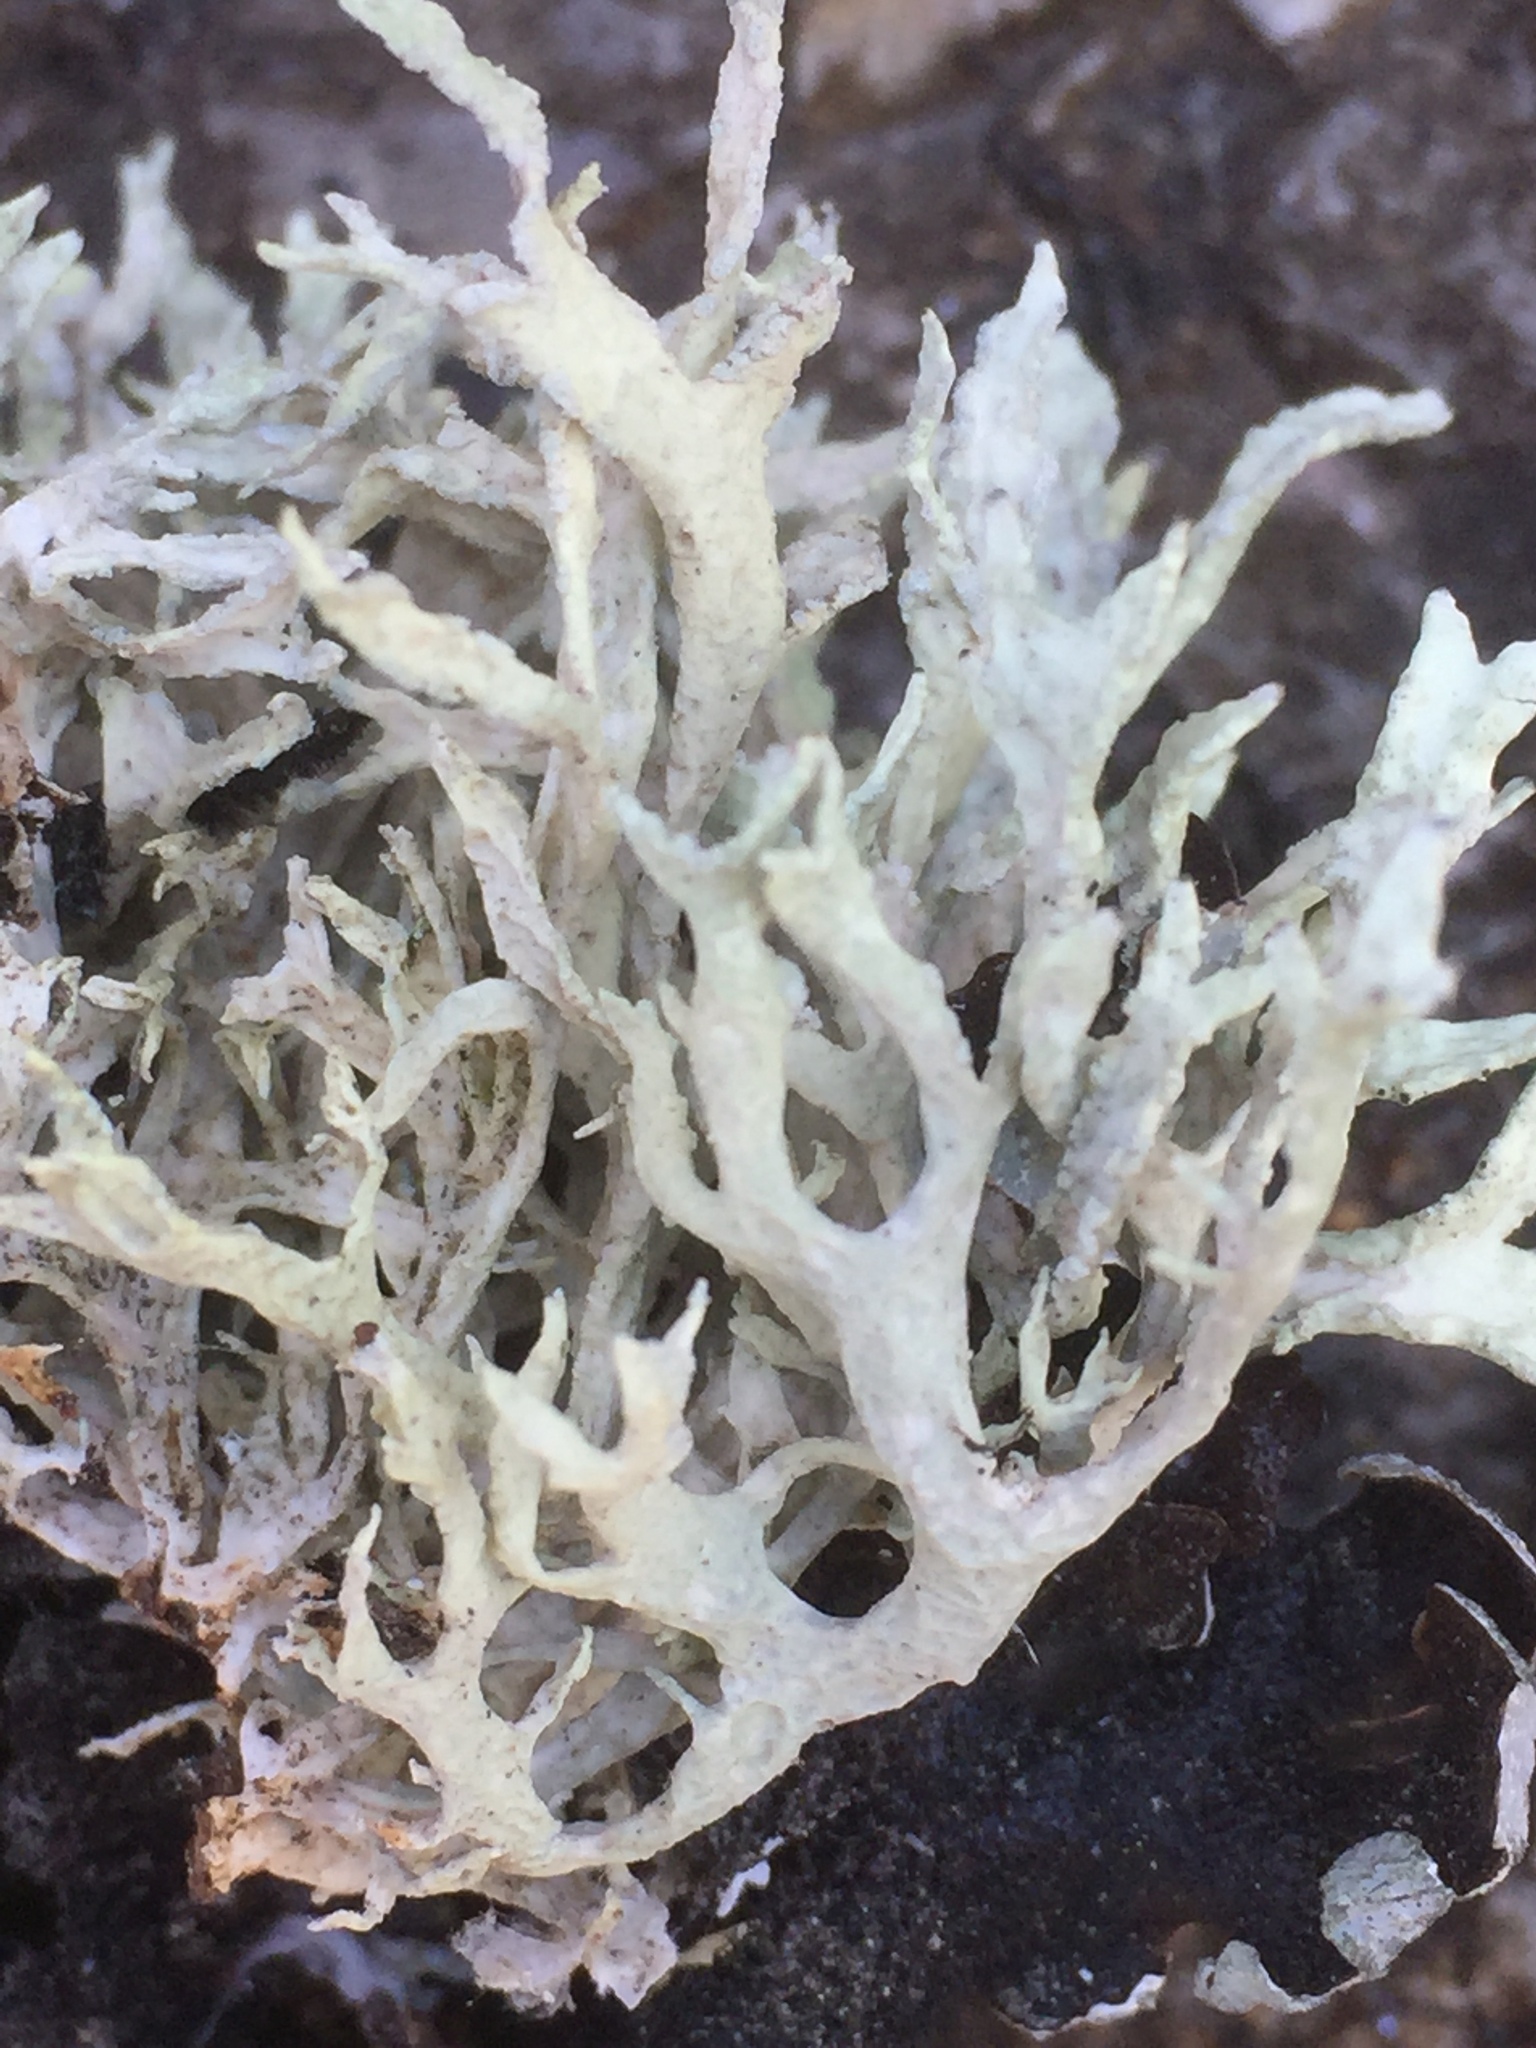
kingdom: Fungi
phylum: Ascomycota
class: Lecanoromycetes
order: Lecanorales
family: Parmeliaceae
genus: Evernia
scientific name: Evernia prunastri
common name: Oak moss
